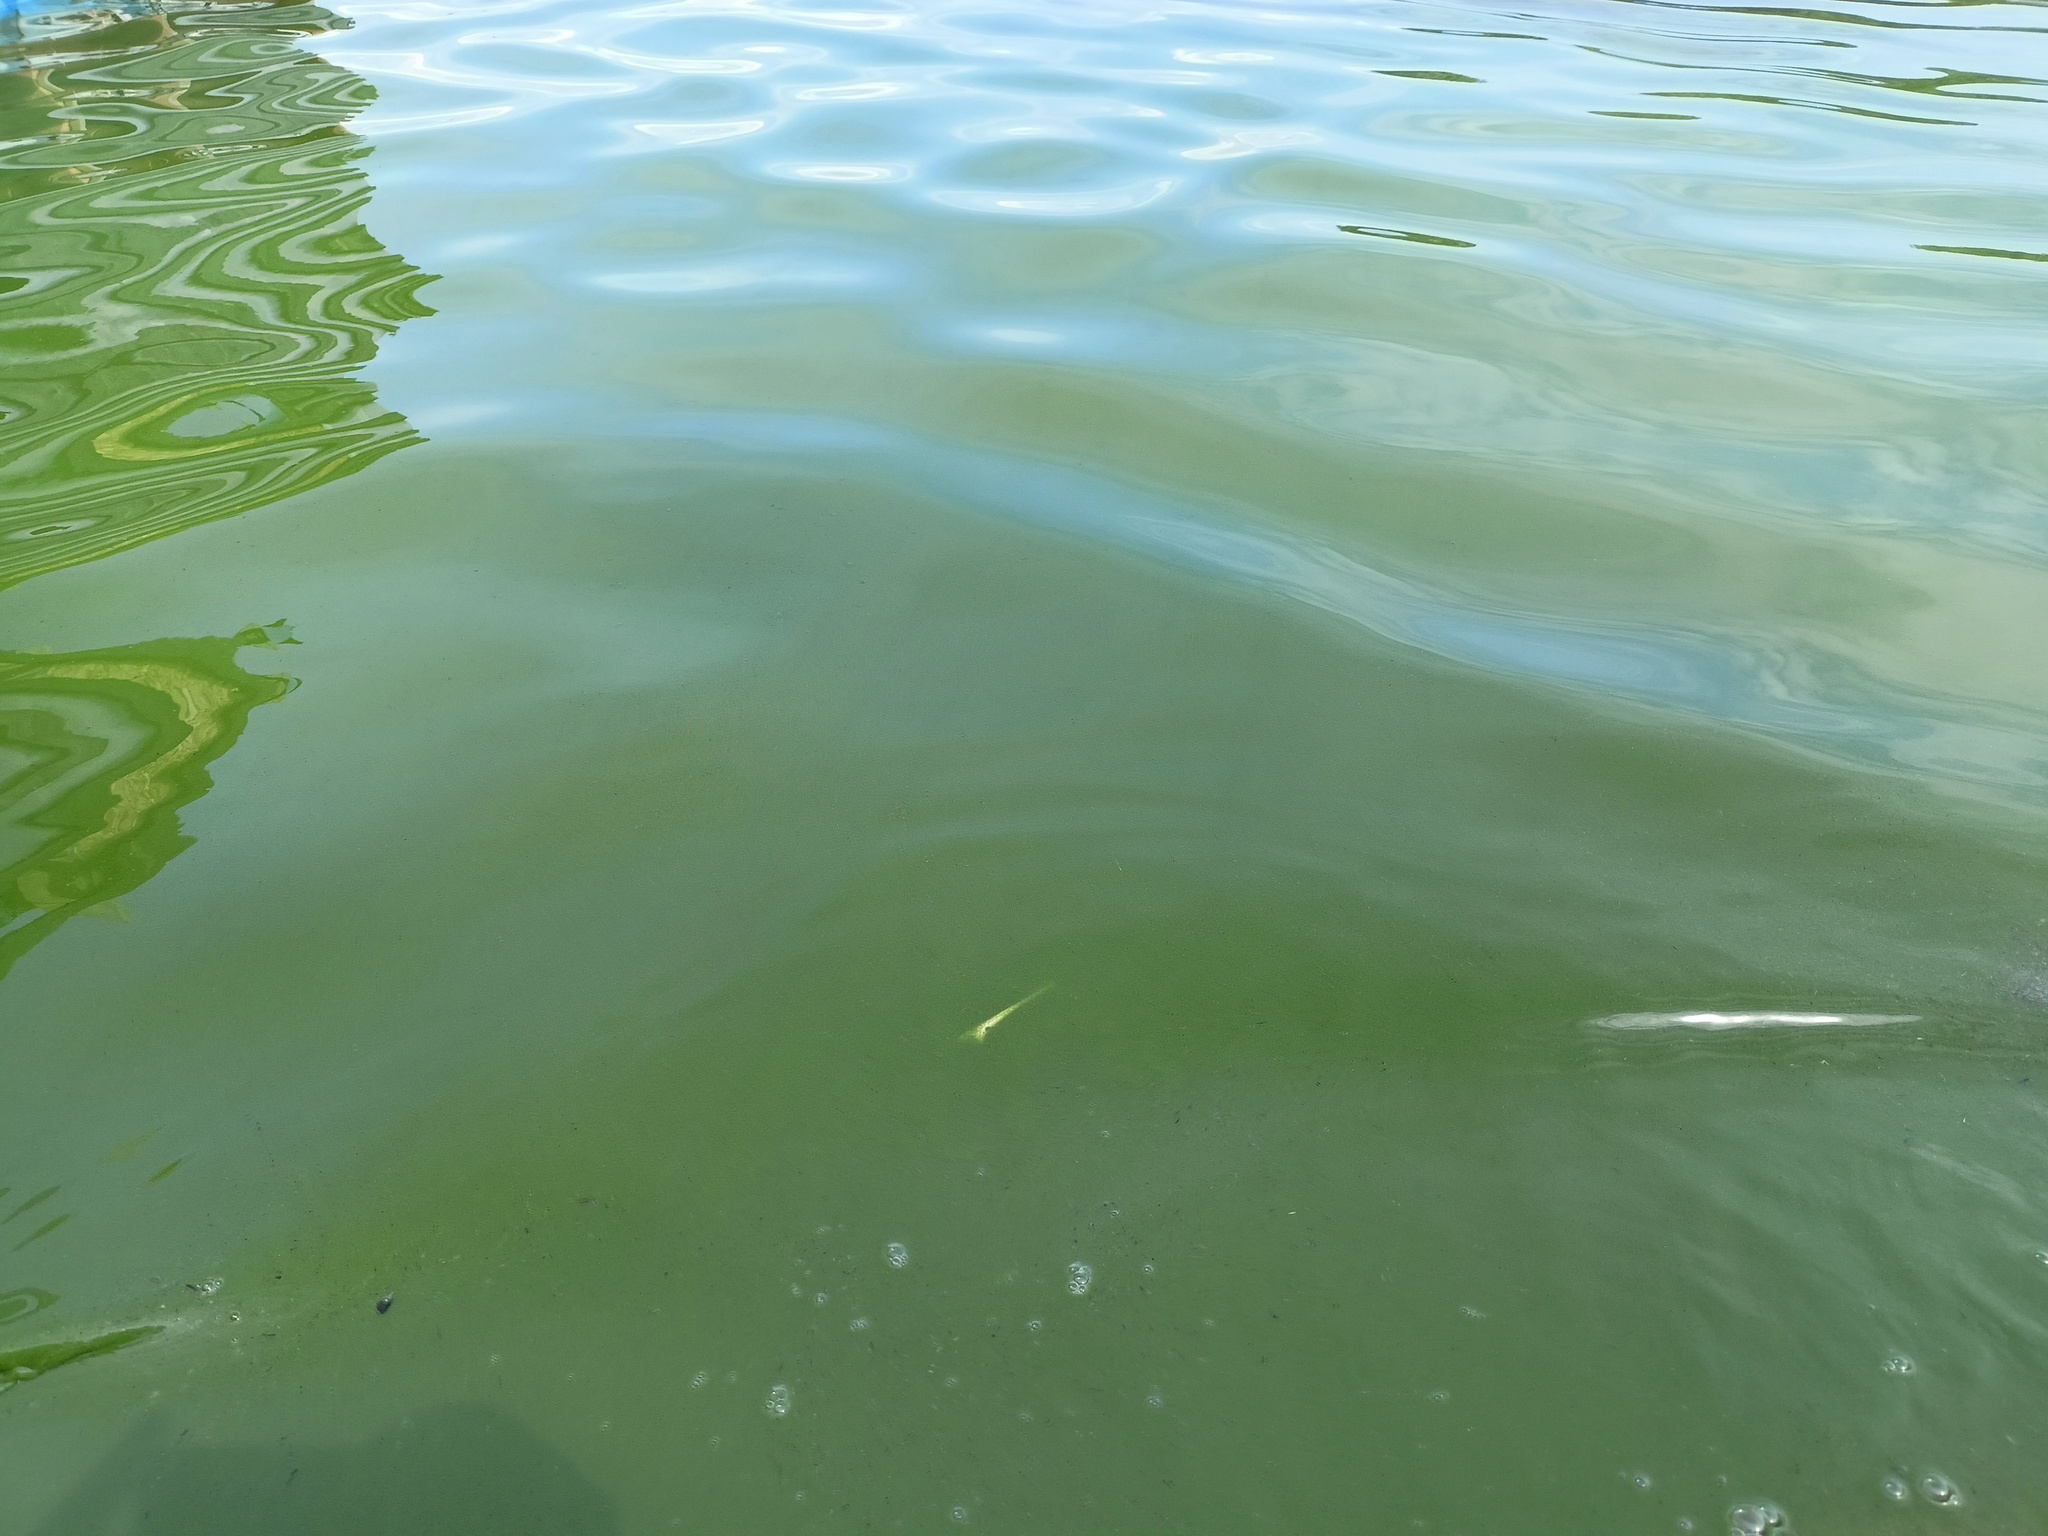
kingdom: Bacteria
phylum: Cyanobacteria
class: Cyanobacteriia
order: Cyanobacteriales
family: Microcystaceae
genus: Microcystis
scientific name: Microcystis
